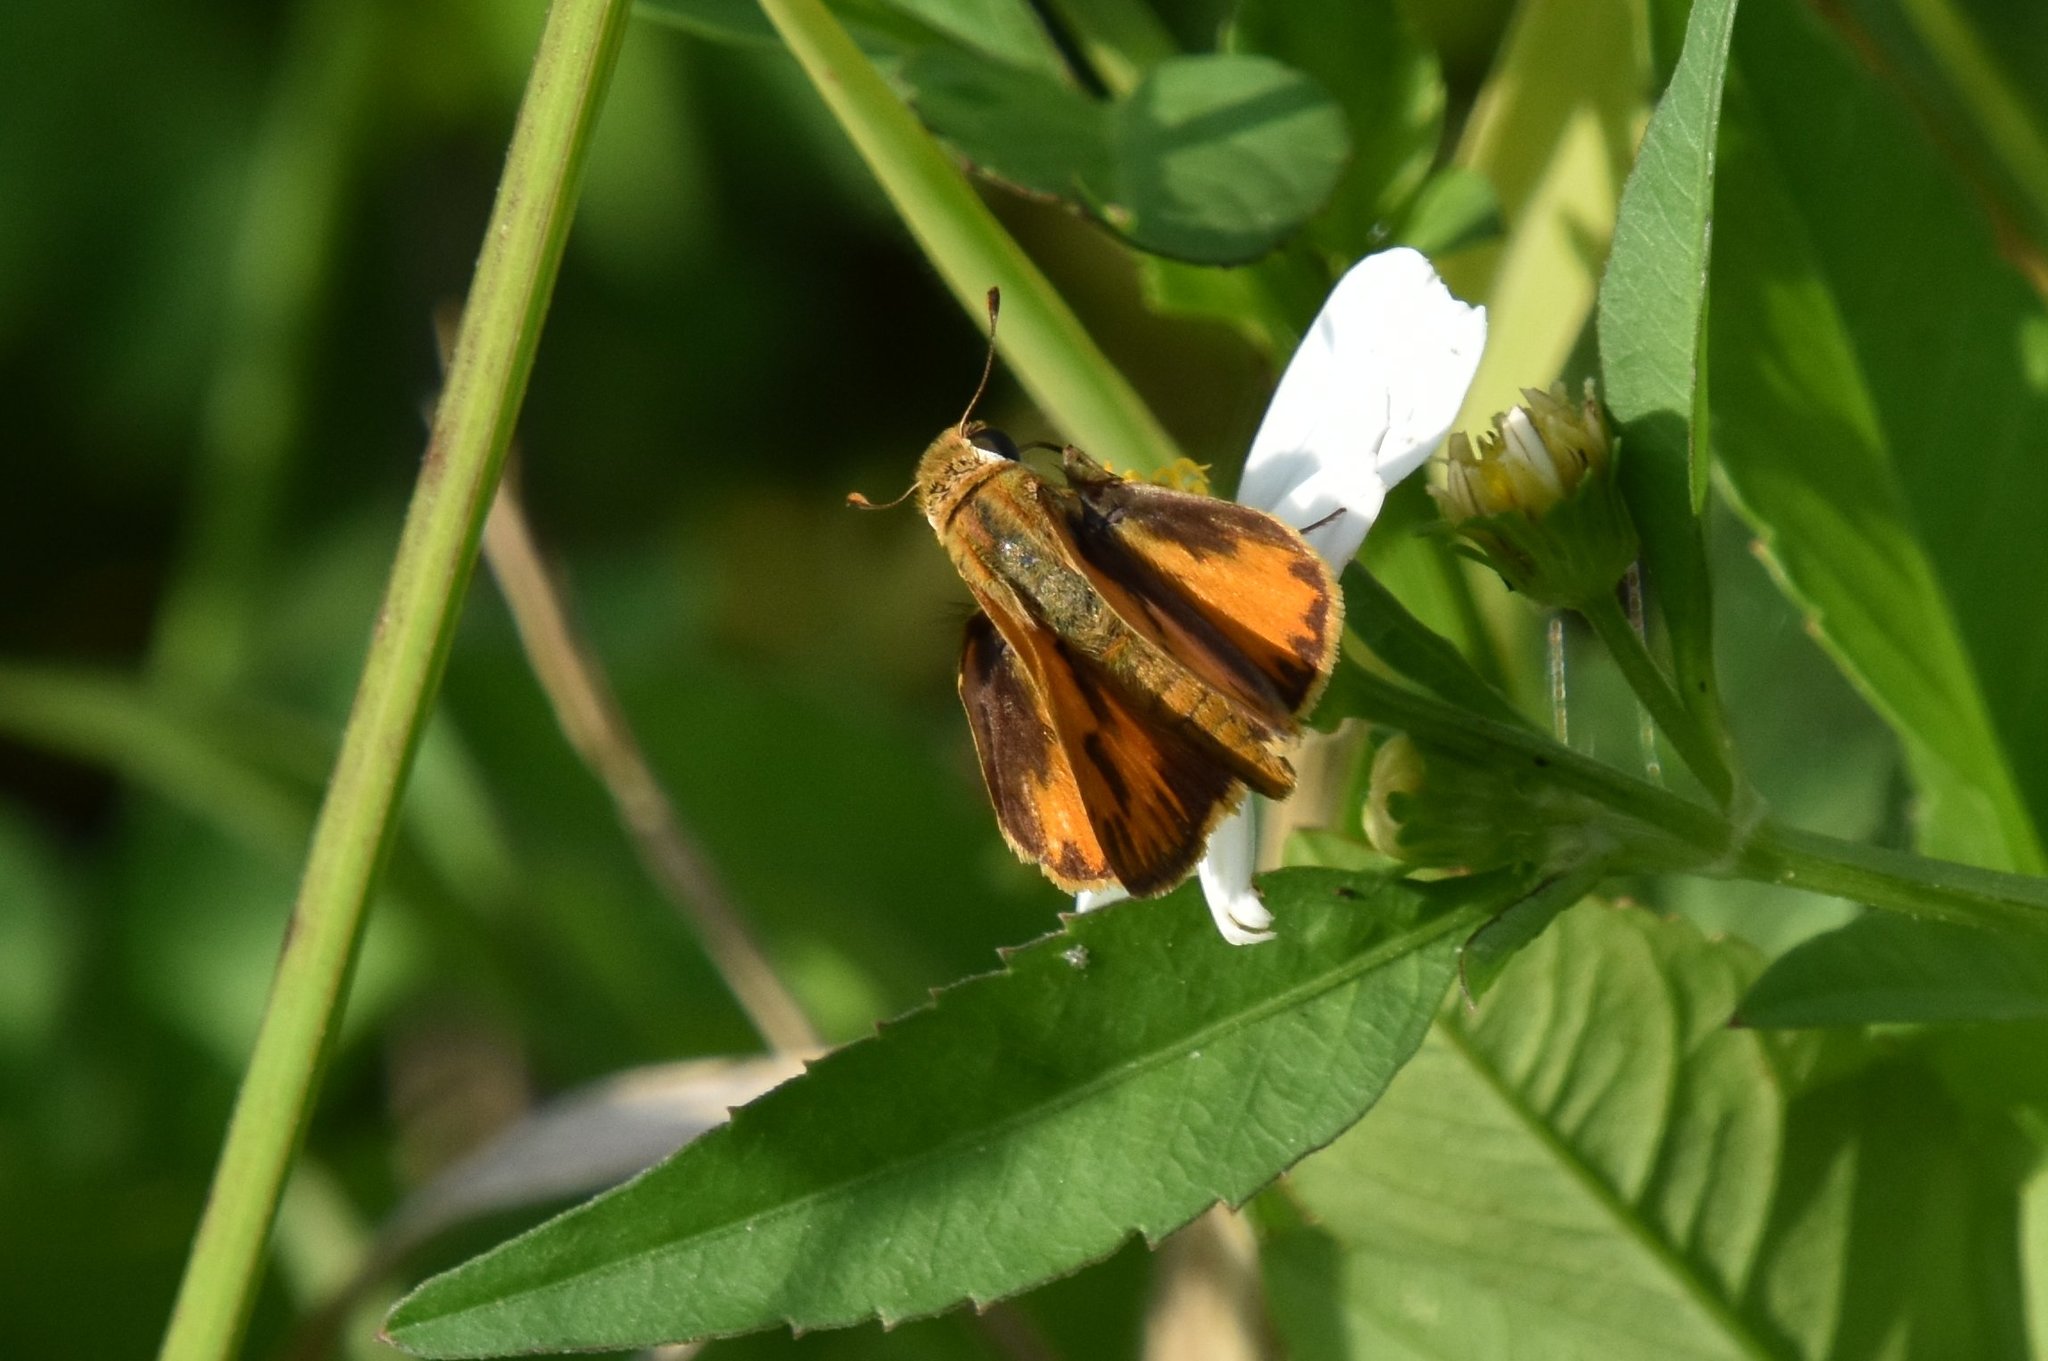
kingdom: Animalia
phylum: Arthropoda
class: Insecta
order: Lepidoptera
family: Hesperiidae
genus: Hylephila
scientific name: Hylephila phyleus
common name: Fiery skipper
